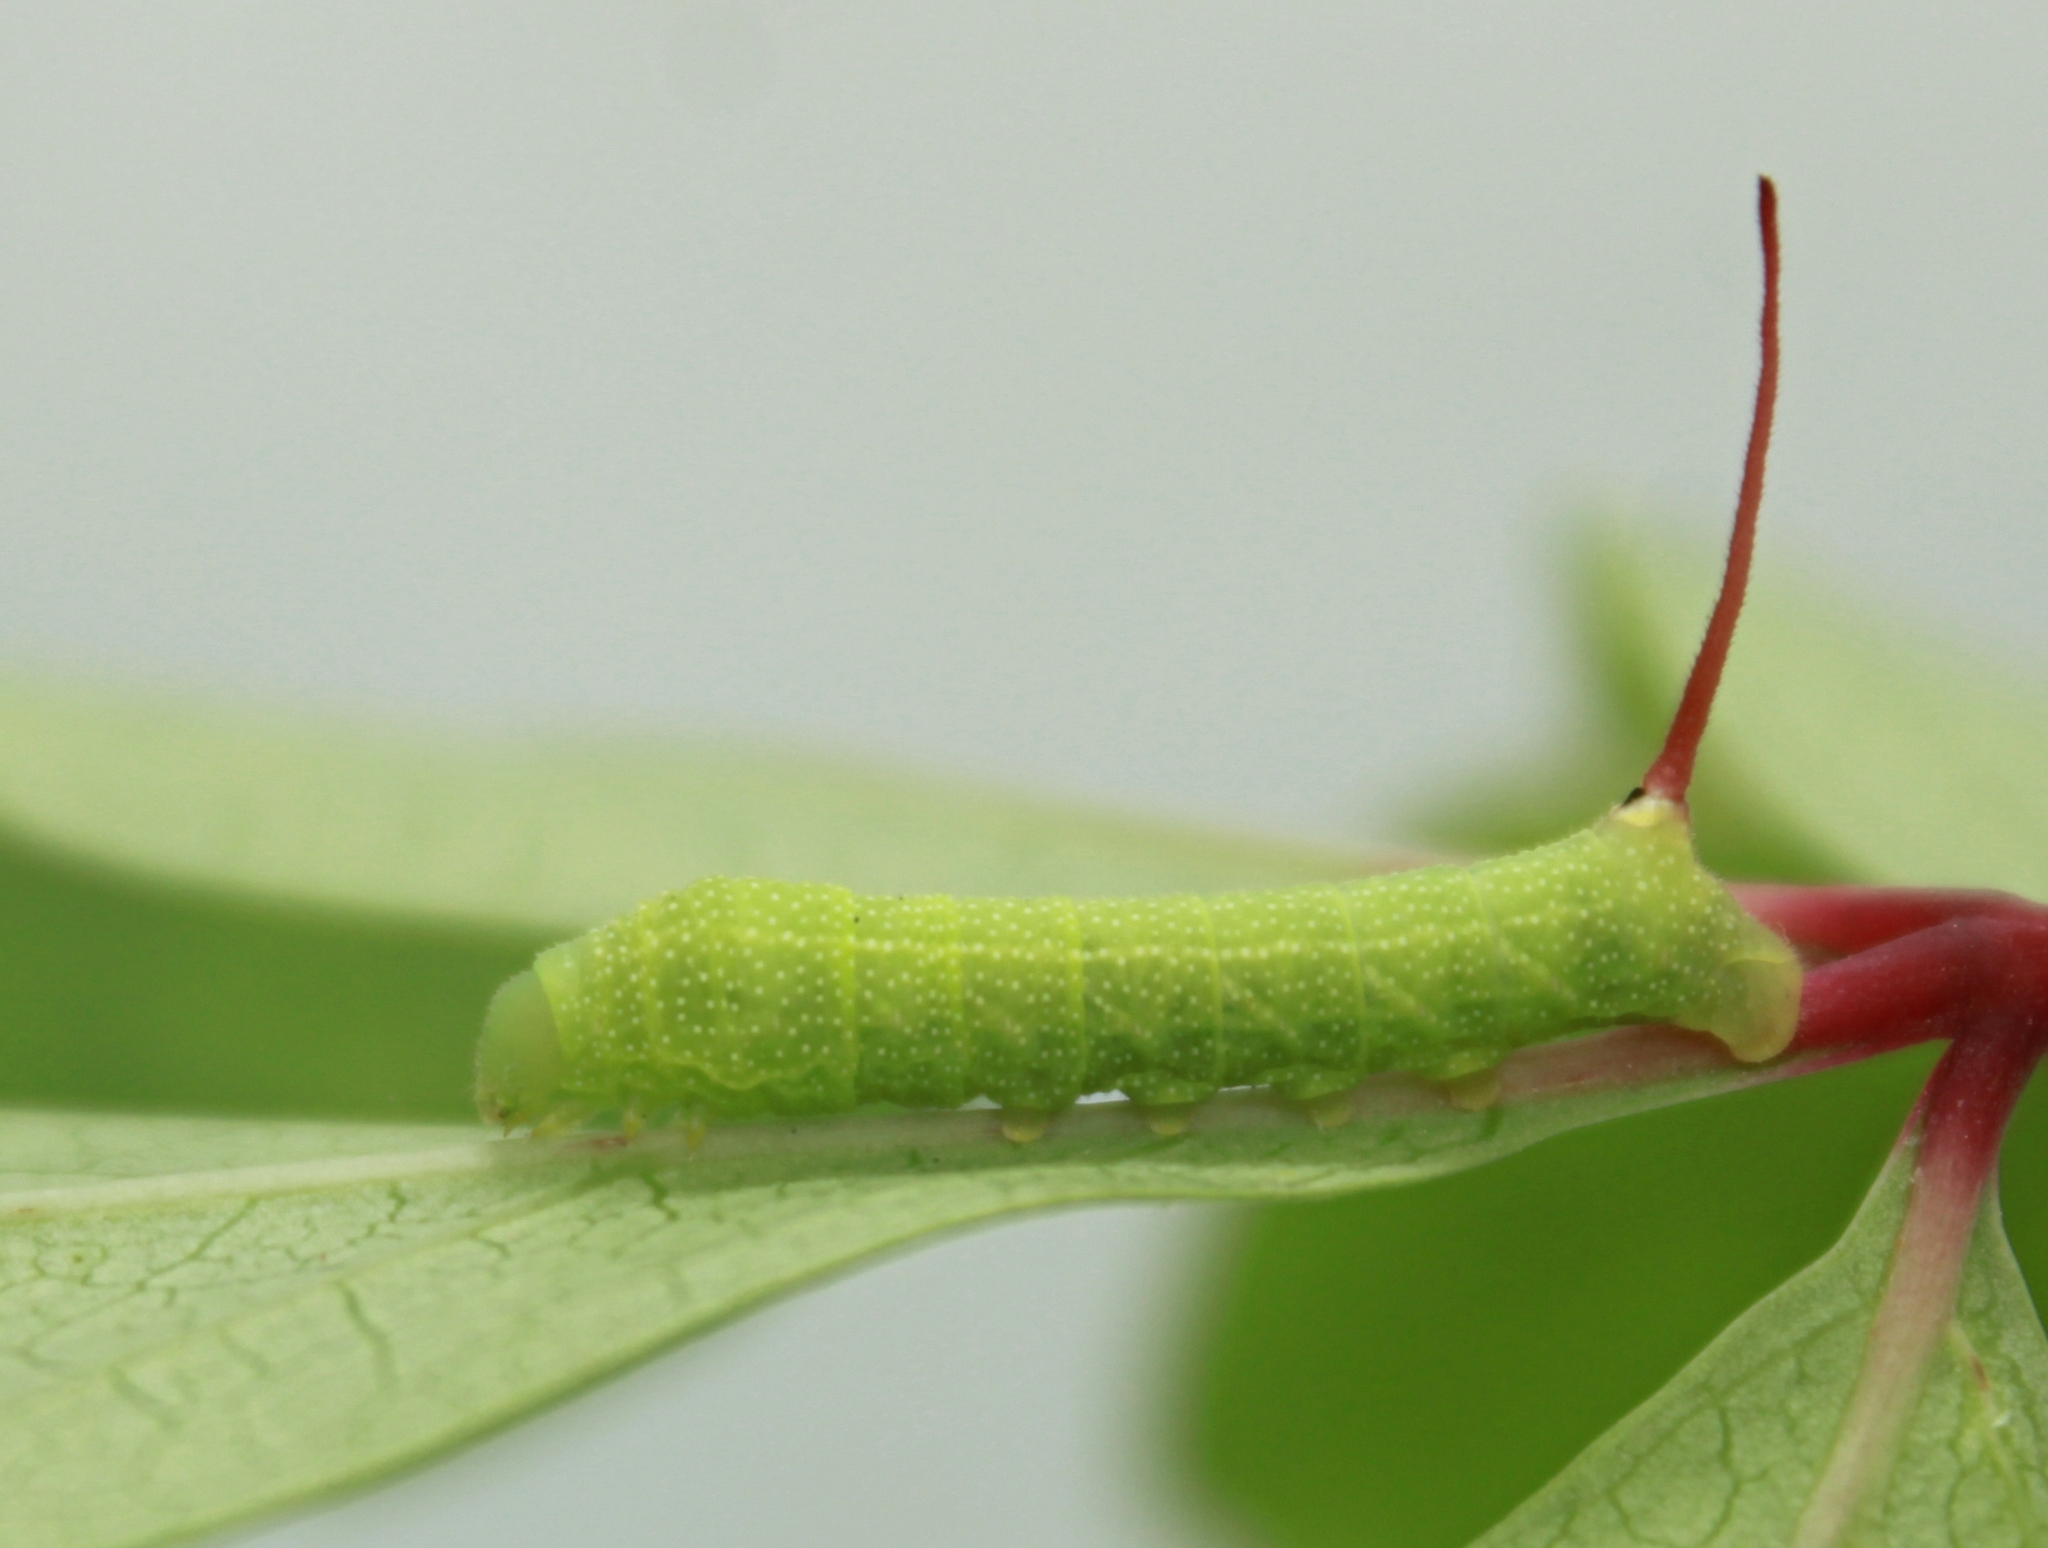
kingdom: Animalia
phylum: Arthropoda
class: Insecta
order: Lepidoptera
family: Sphingidae
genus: Eumorpha
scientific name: Eumorpha achemon
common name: Achemon sphinx
